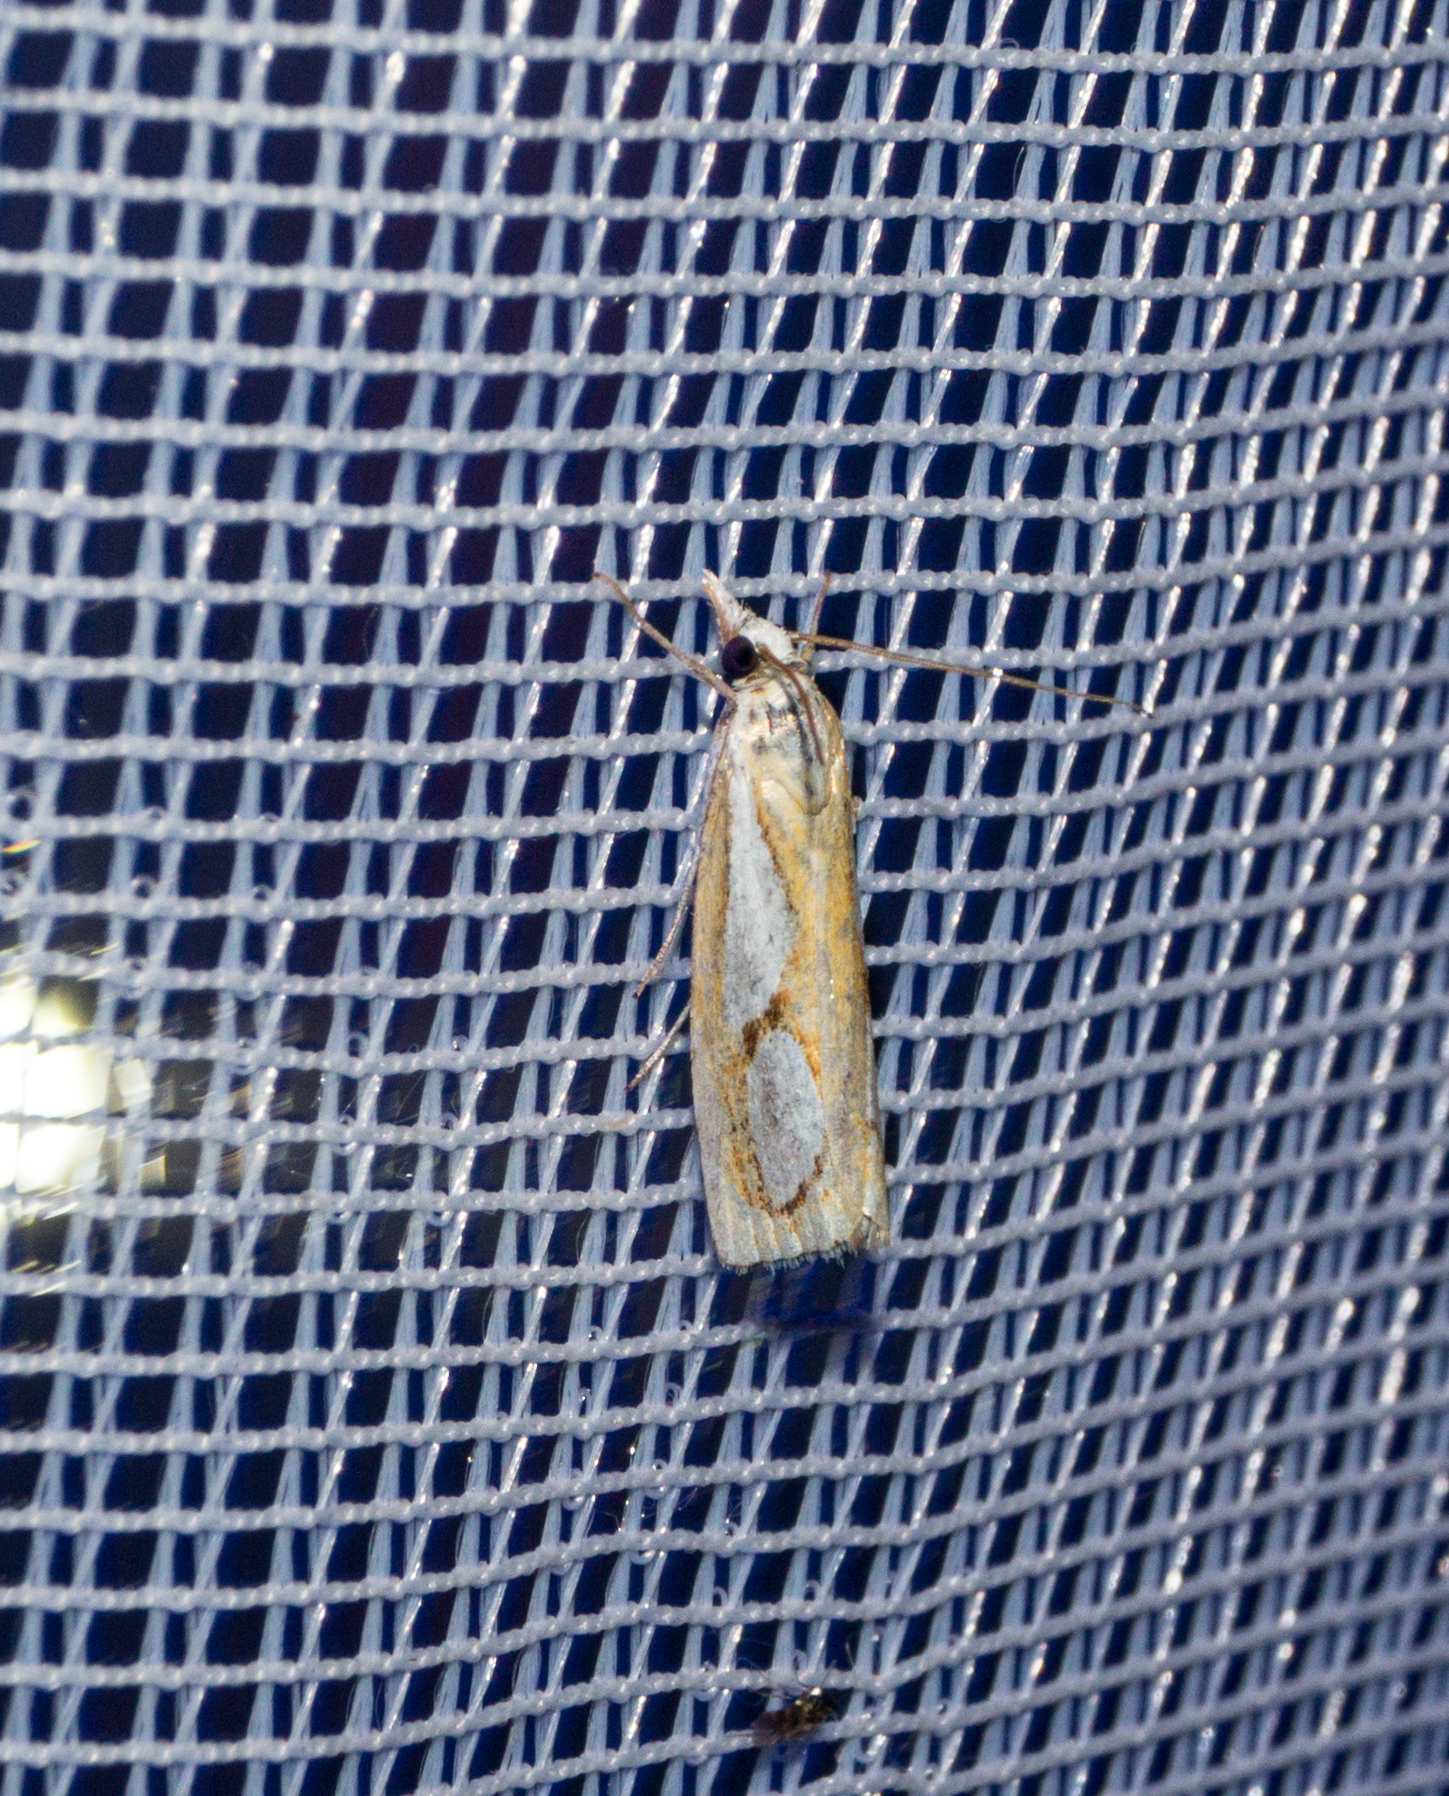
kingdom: Animalia
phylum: Arthropoda
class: Insecta
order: Lepidoptera
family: Crambidae
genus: Catoptria
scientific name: Catoptria pinella
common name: Pearl grass-veneer
